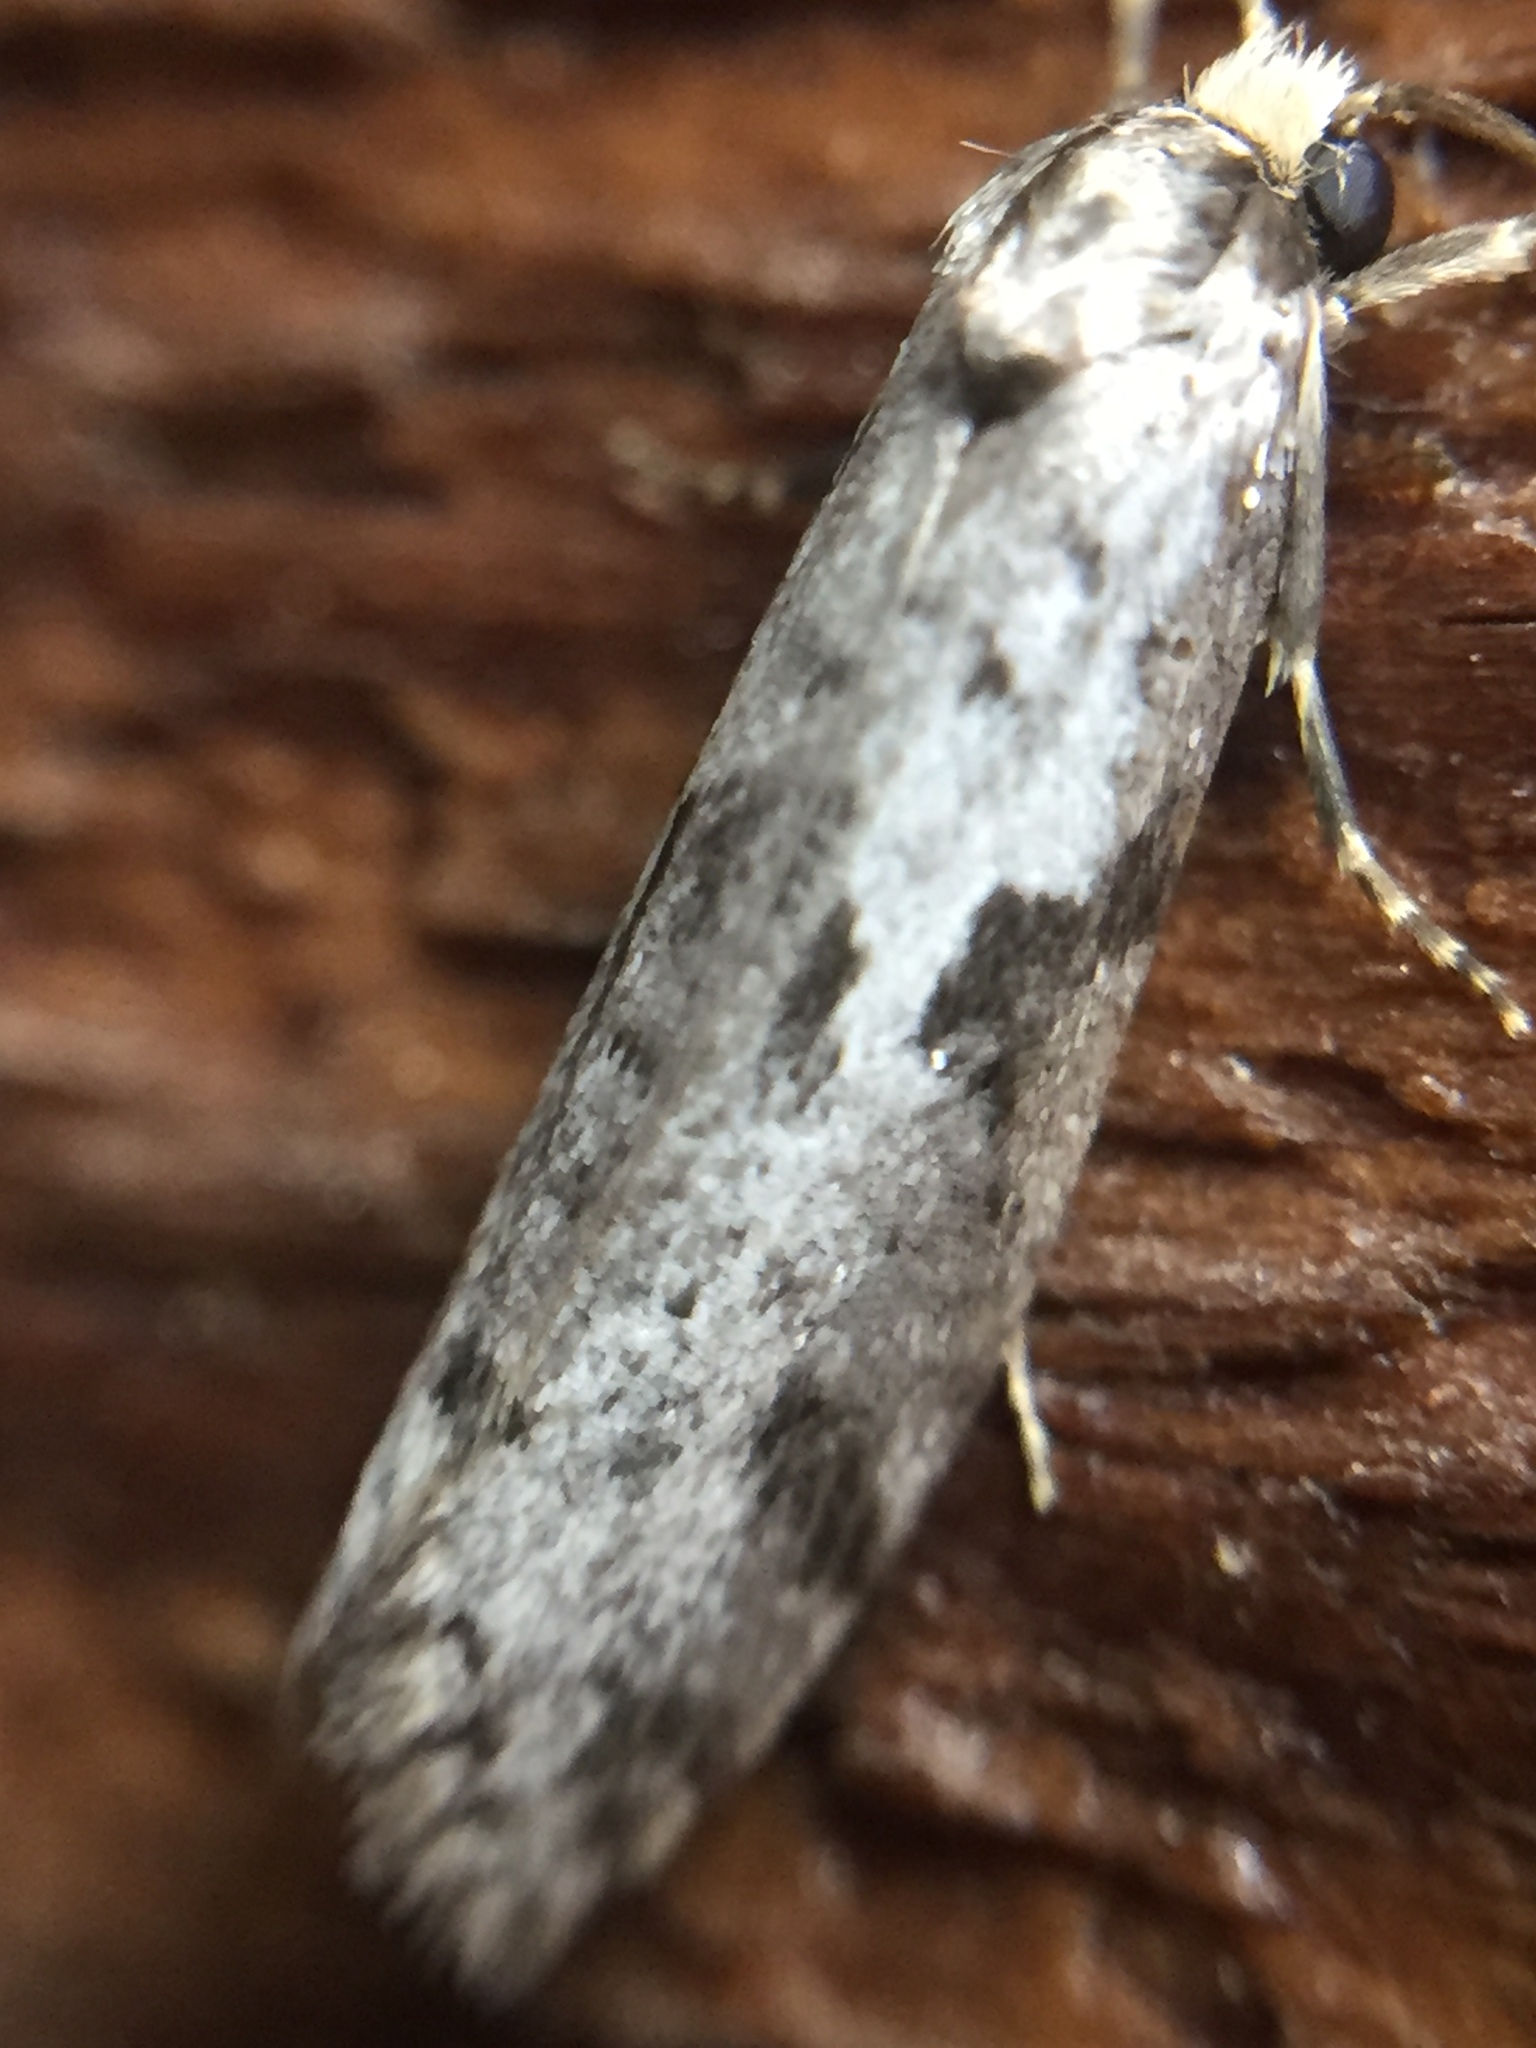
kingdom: Animalia
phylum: Arthropoda
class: Insecta
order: Lepidoptera
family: Psychidae
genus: Lepidoscia
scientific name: Lepidoscia protorna
